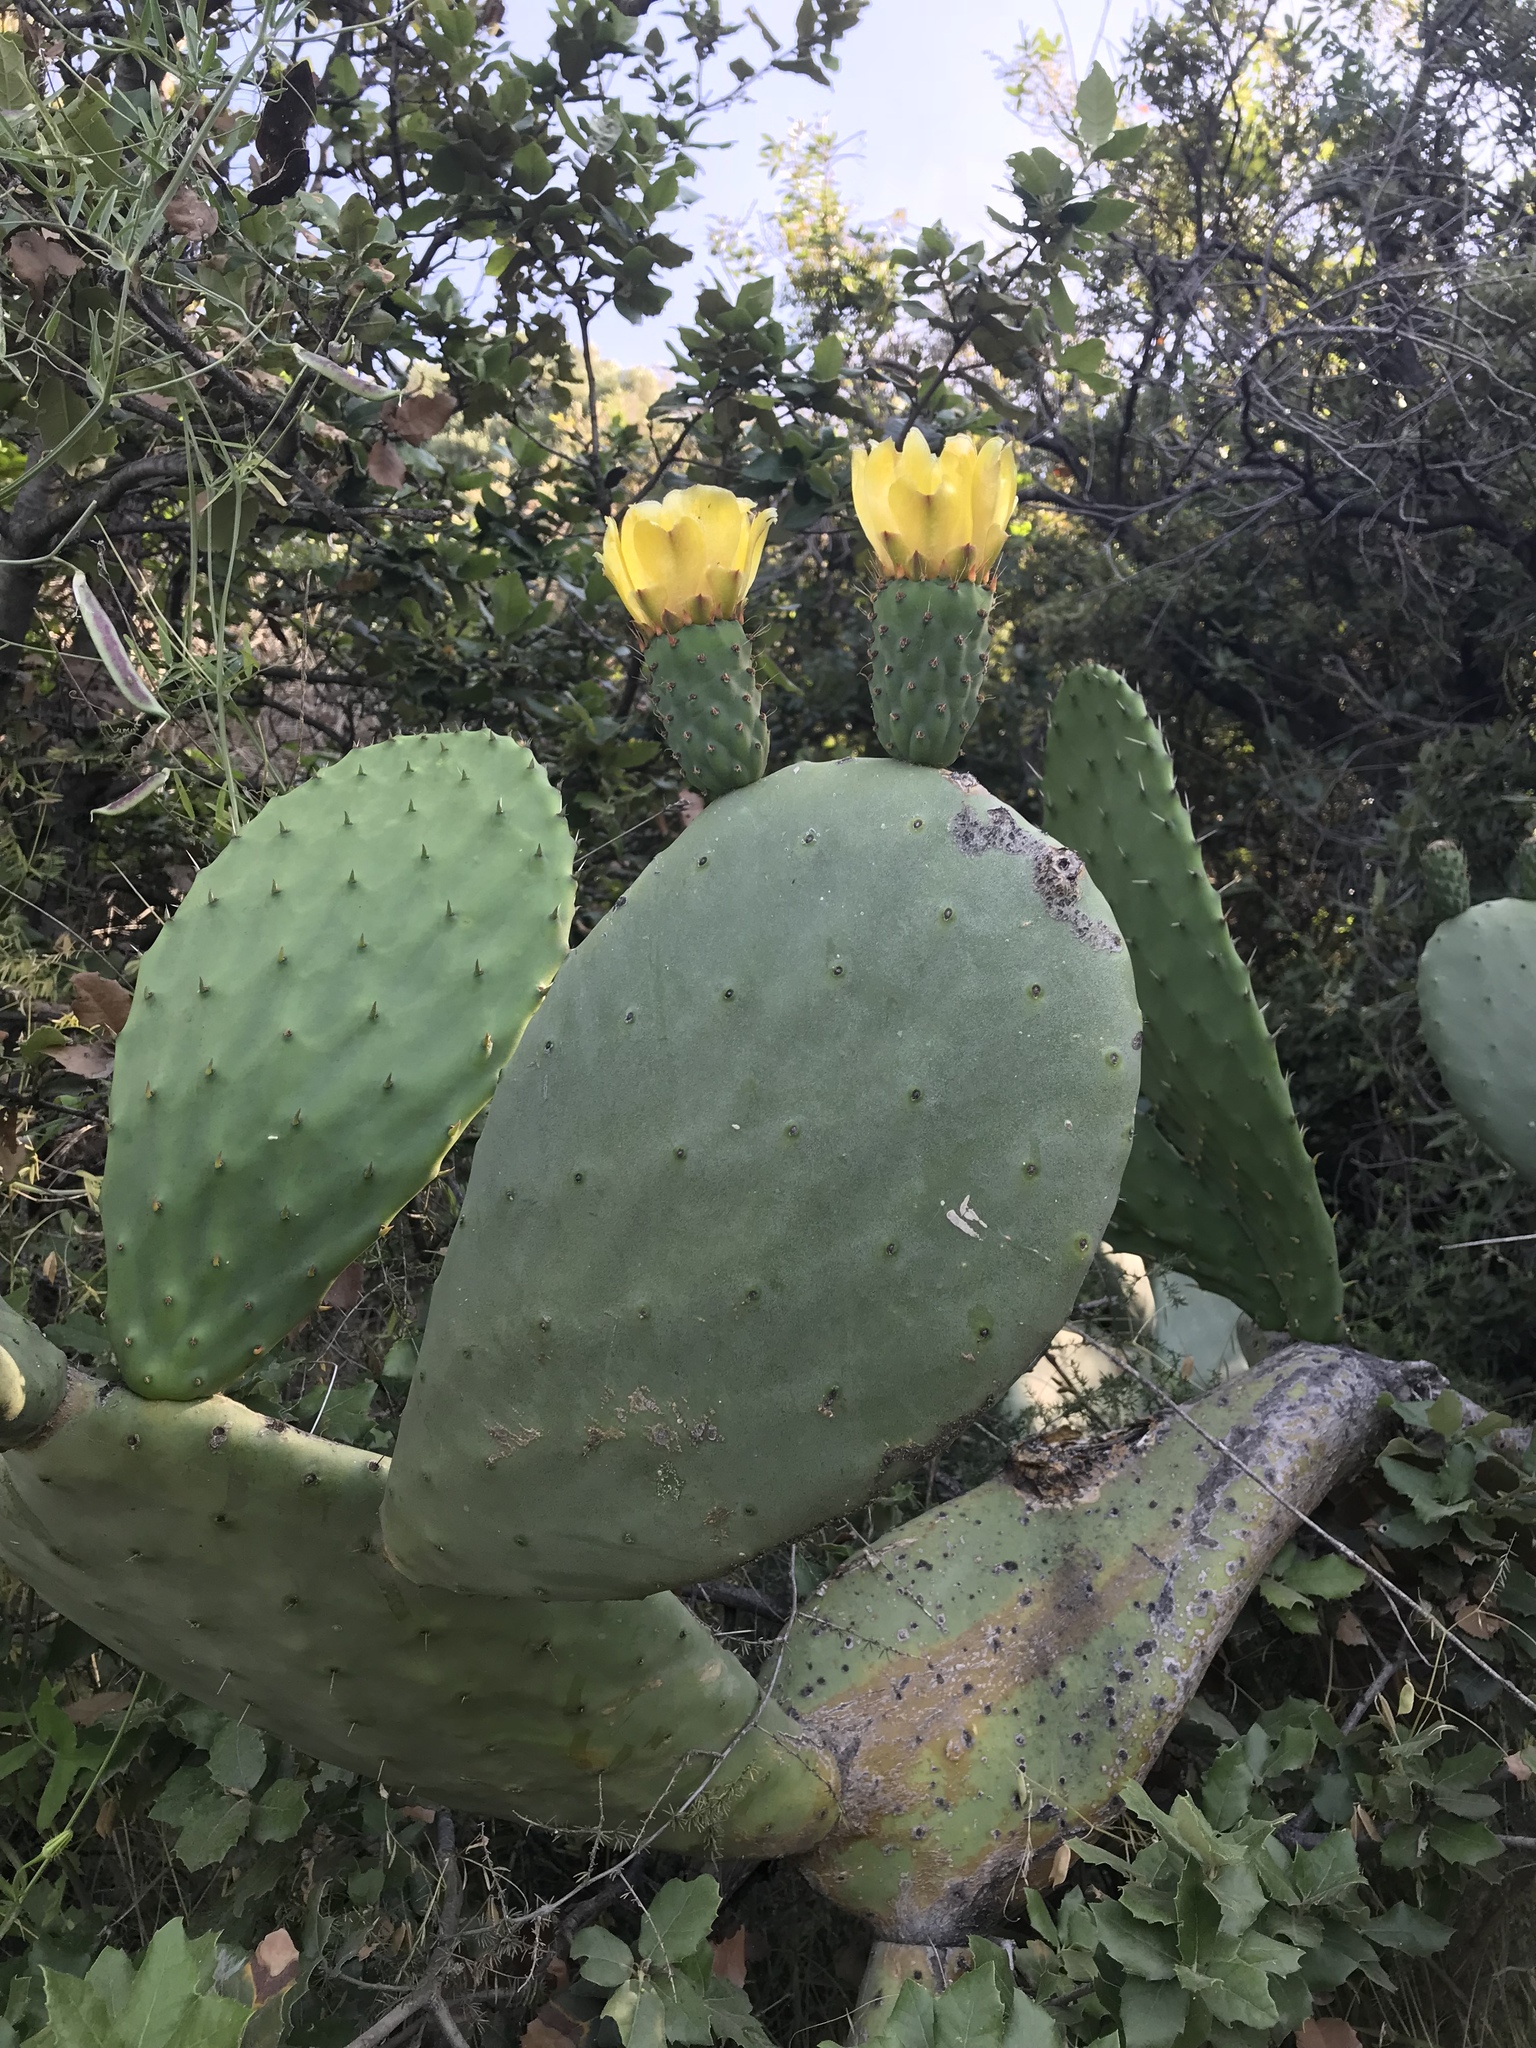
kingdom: Plantae
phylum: Tracheophyta
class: Magnoliopsida
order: Caryophyllales
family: Cactaceae
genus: Opuntia
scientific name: Opuntia ficus-indica
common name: Barbary fig
